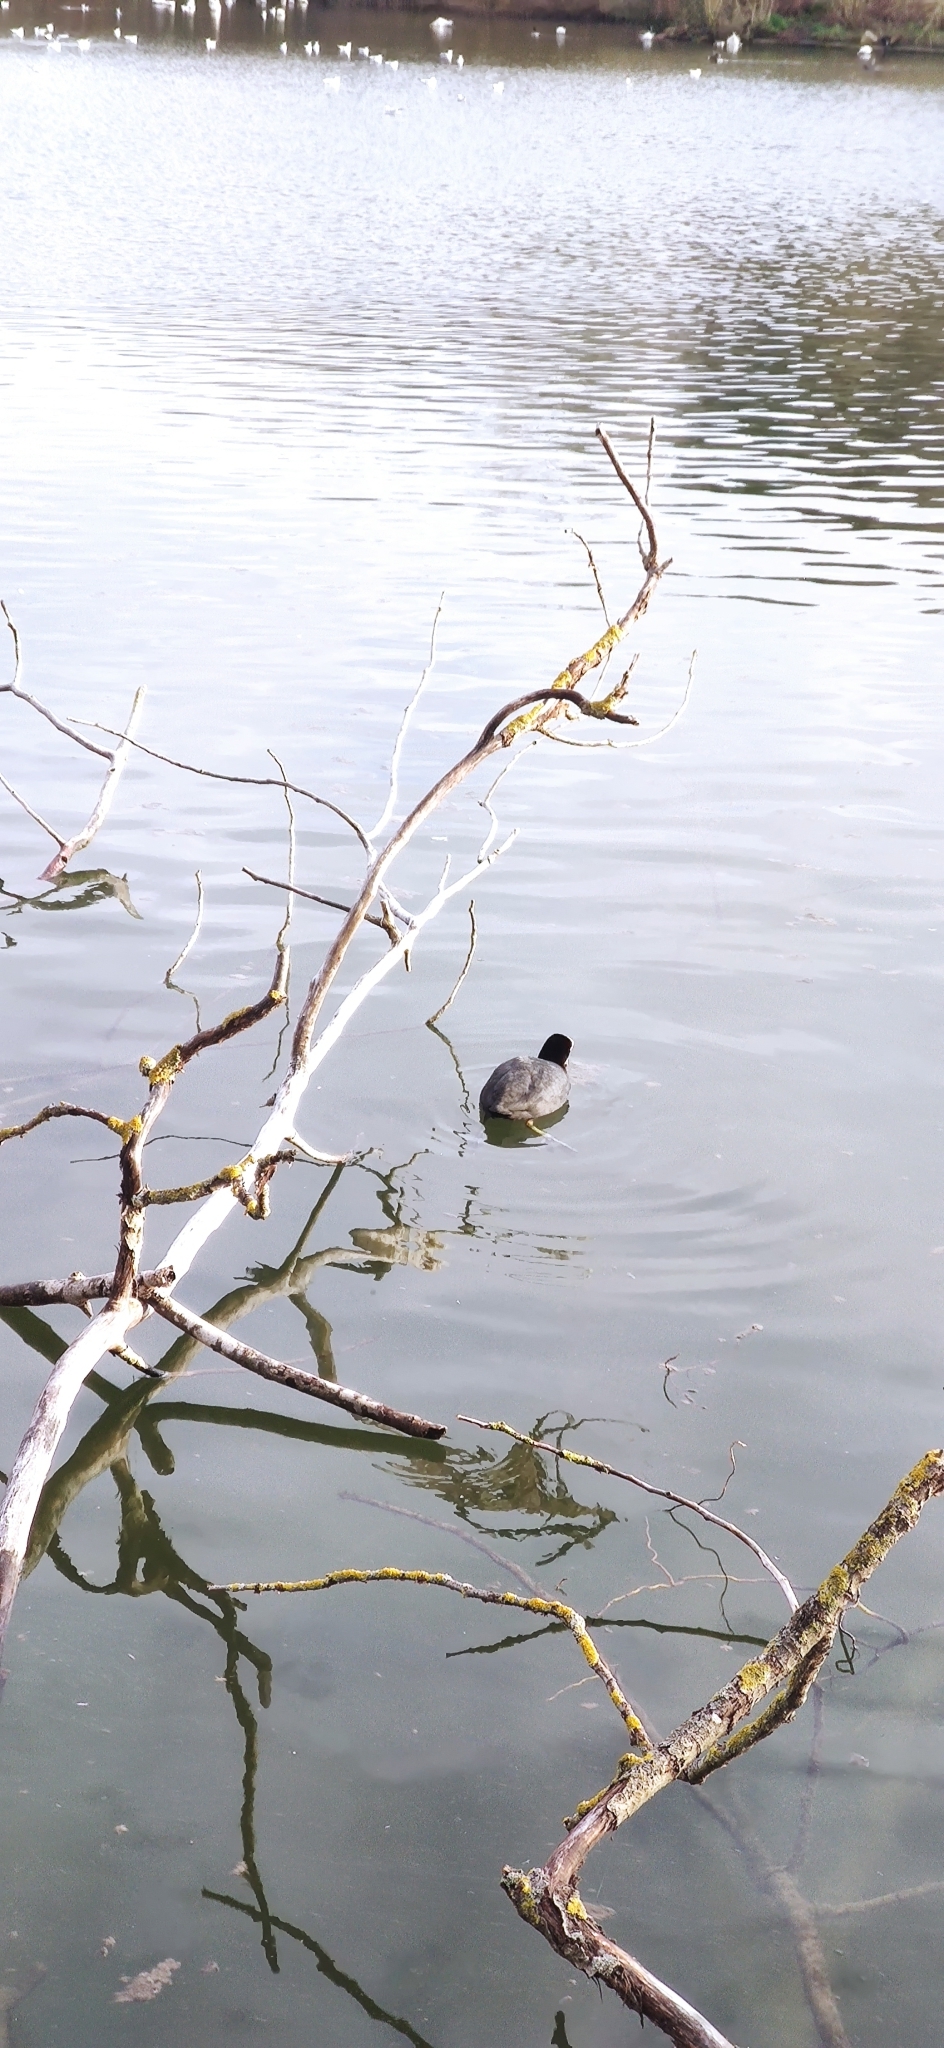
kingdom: Animalia
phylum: Chordata
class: Aves
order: Gruiformes
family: Rallidae
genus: Fulica
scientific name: Fulica atra
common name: Eurasian coot
